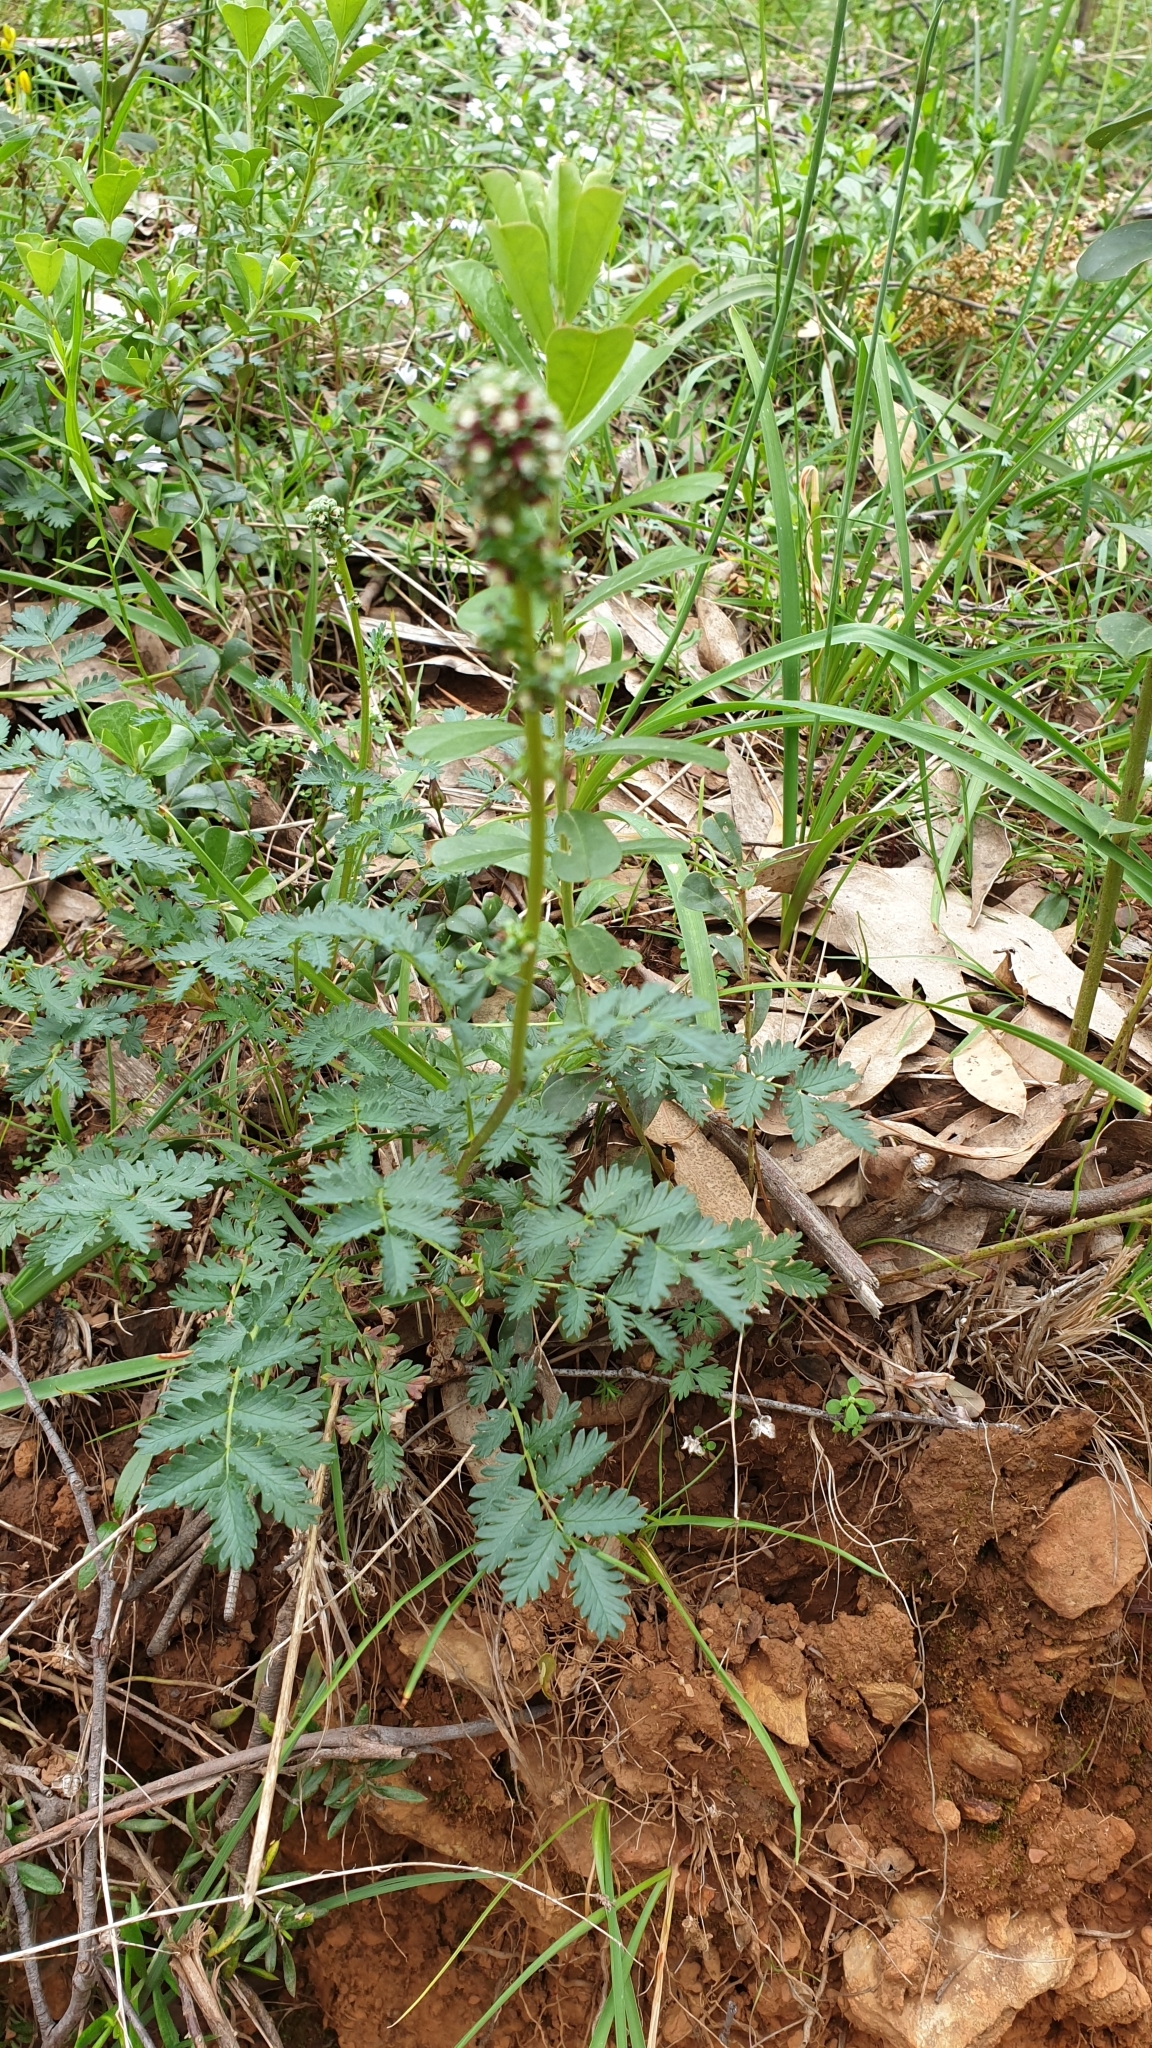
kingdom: Plantae
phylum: Tracheophyta
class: Magnoliopsida
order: Rosales
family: Rosaceae
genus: Acaena
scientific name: Acaena echinata
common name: Sheepbur
